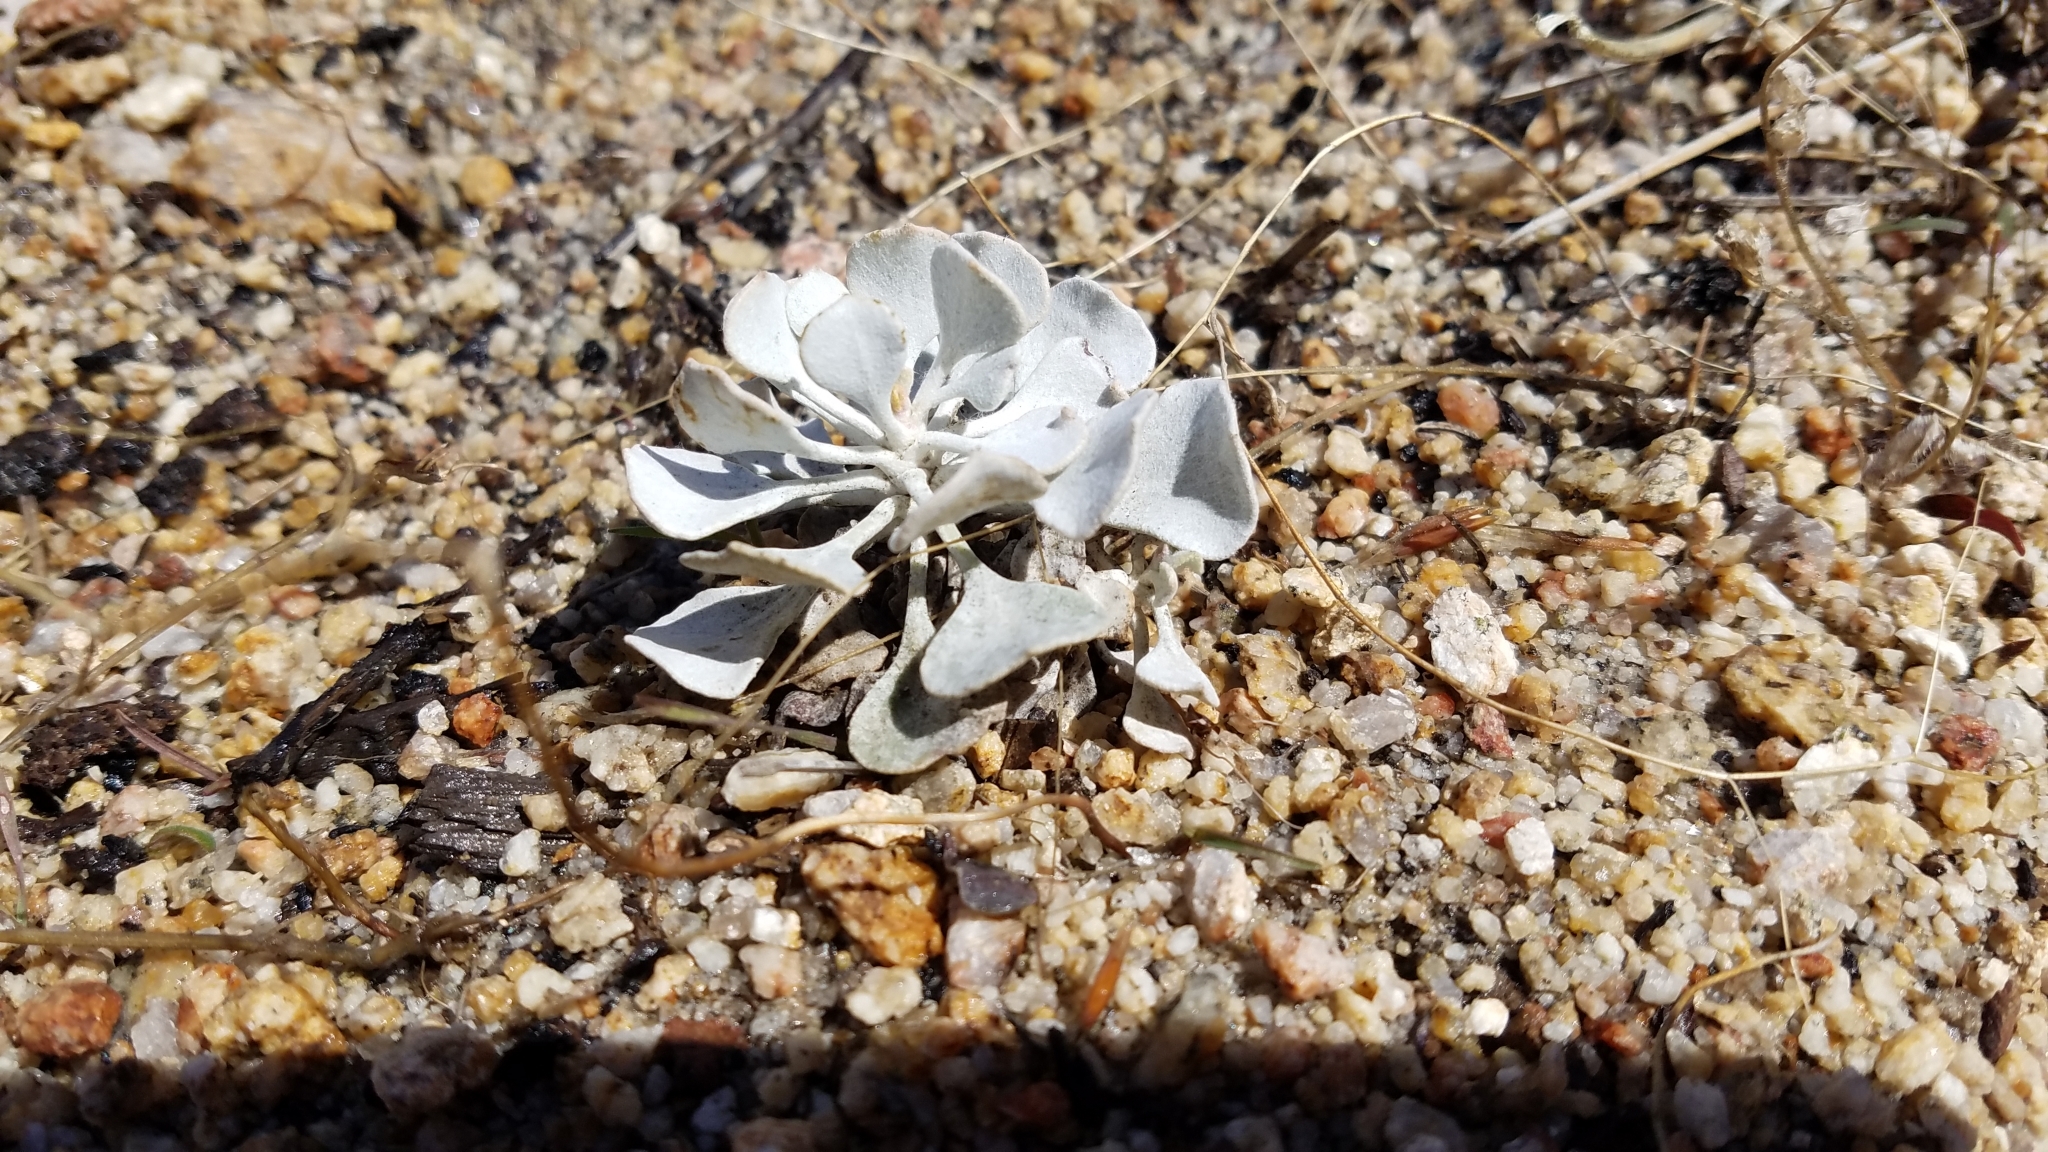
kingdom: Plantae
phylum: Tracheophyta
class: Magnoliopsida
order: Caryophyllales
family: Polygonaceae
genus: Eriogonum
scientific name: Eriogonum saxatile
